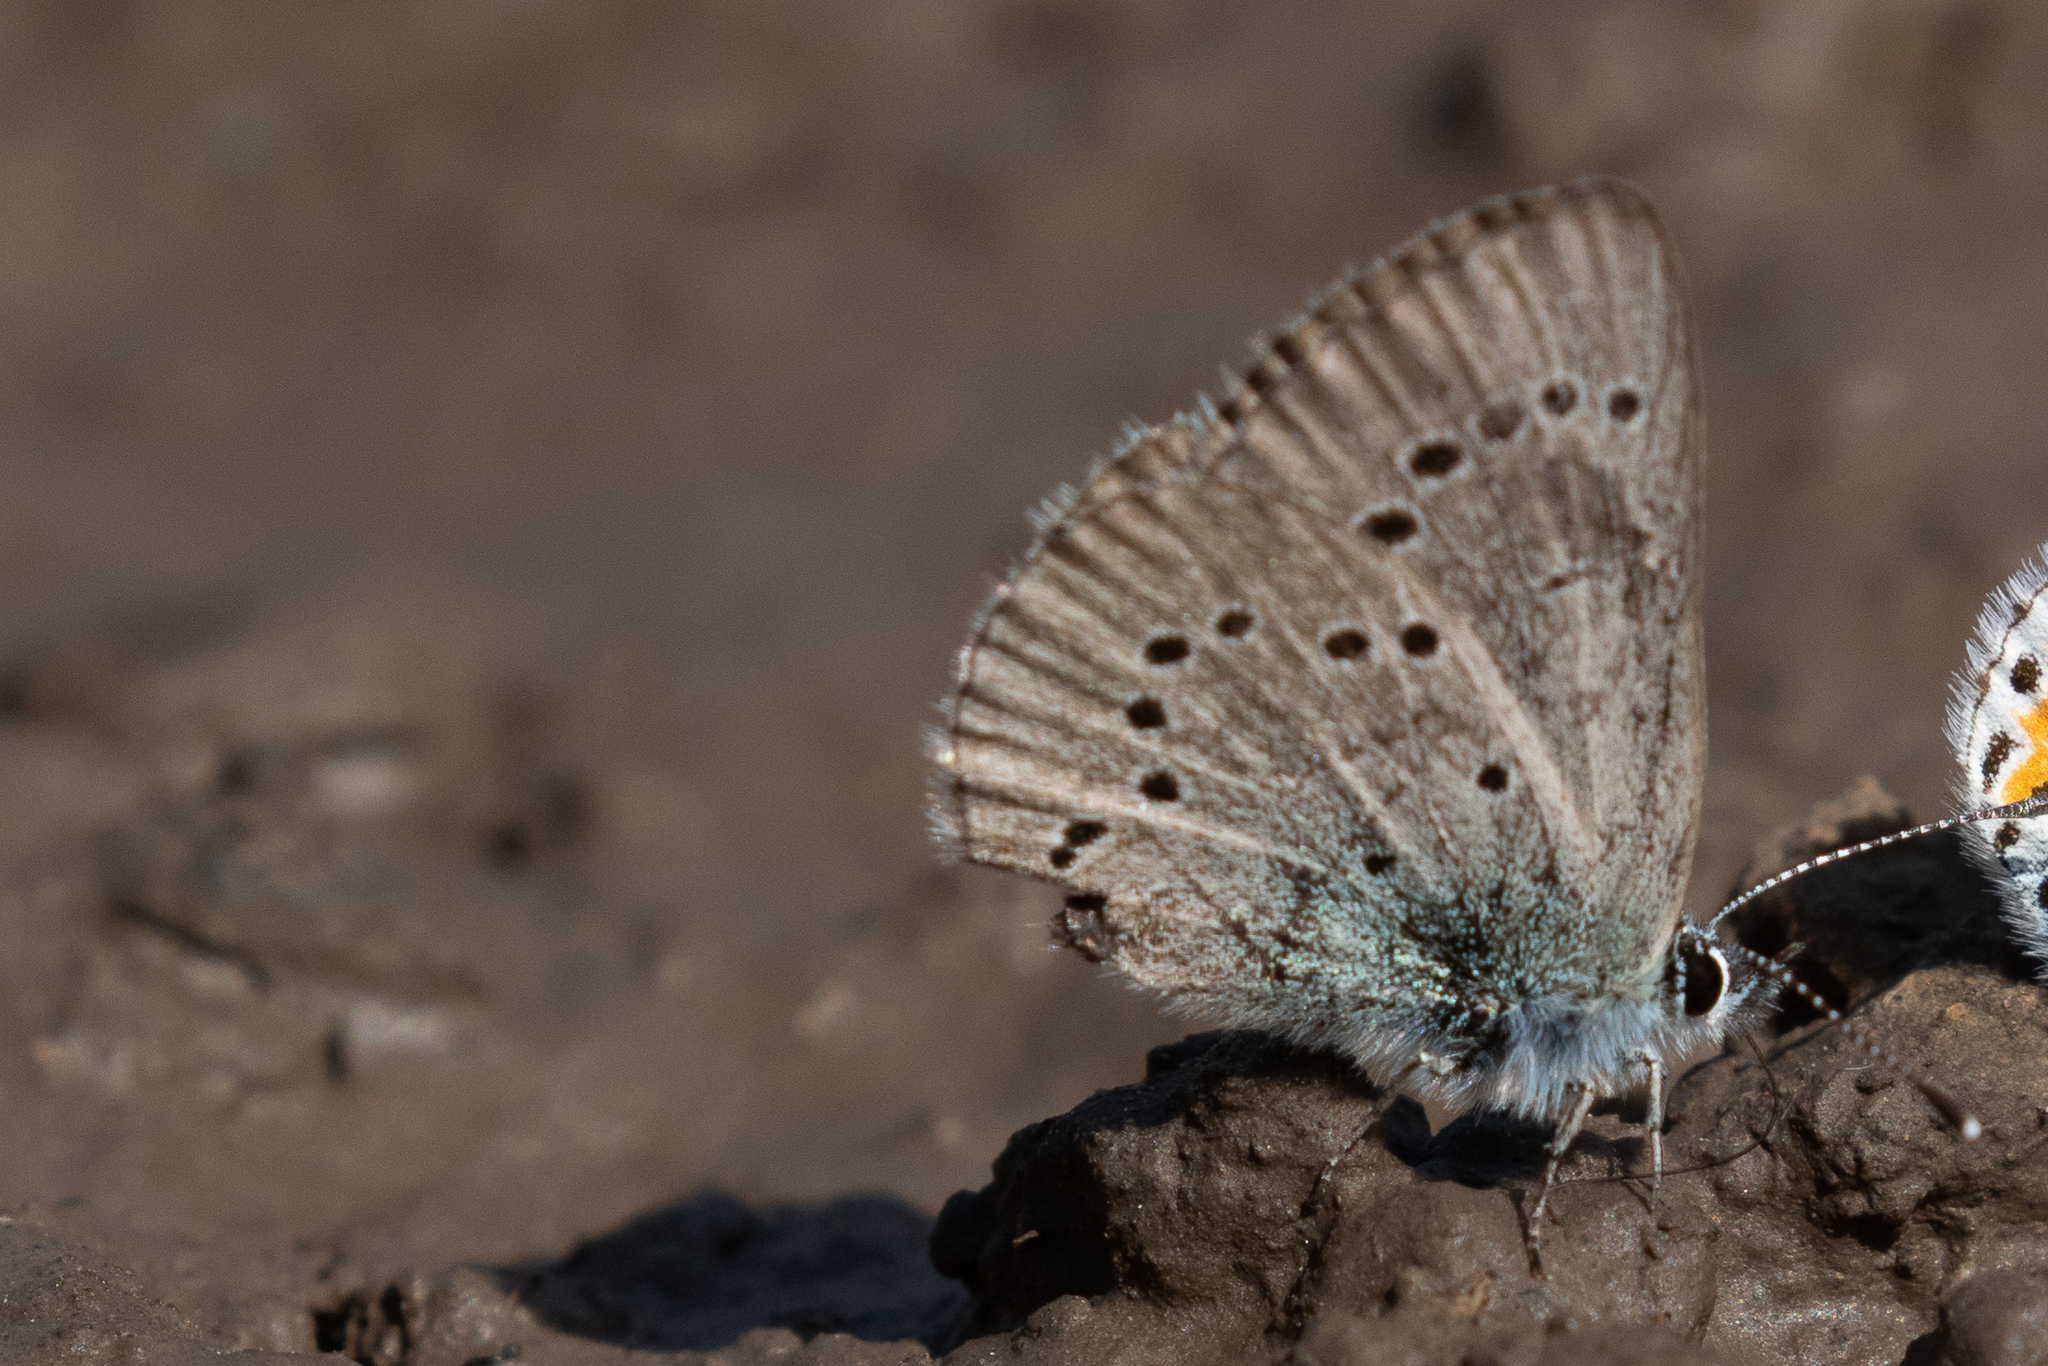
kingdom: Animalia
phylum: Arthropoda
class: Insecta
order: Lepidoptera
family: Lycaenidae
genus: Glaucopsyche
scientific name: Glaucopsyche lygdamus
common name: Silvery blue
